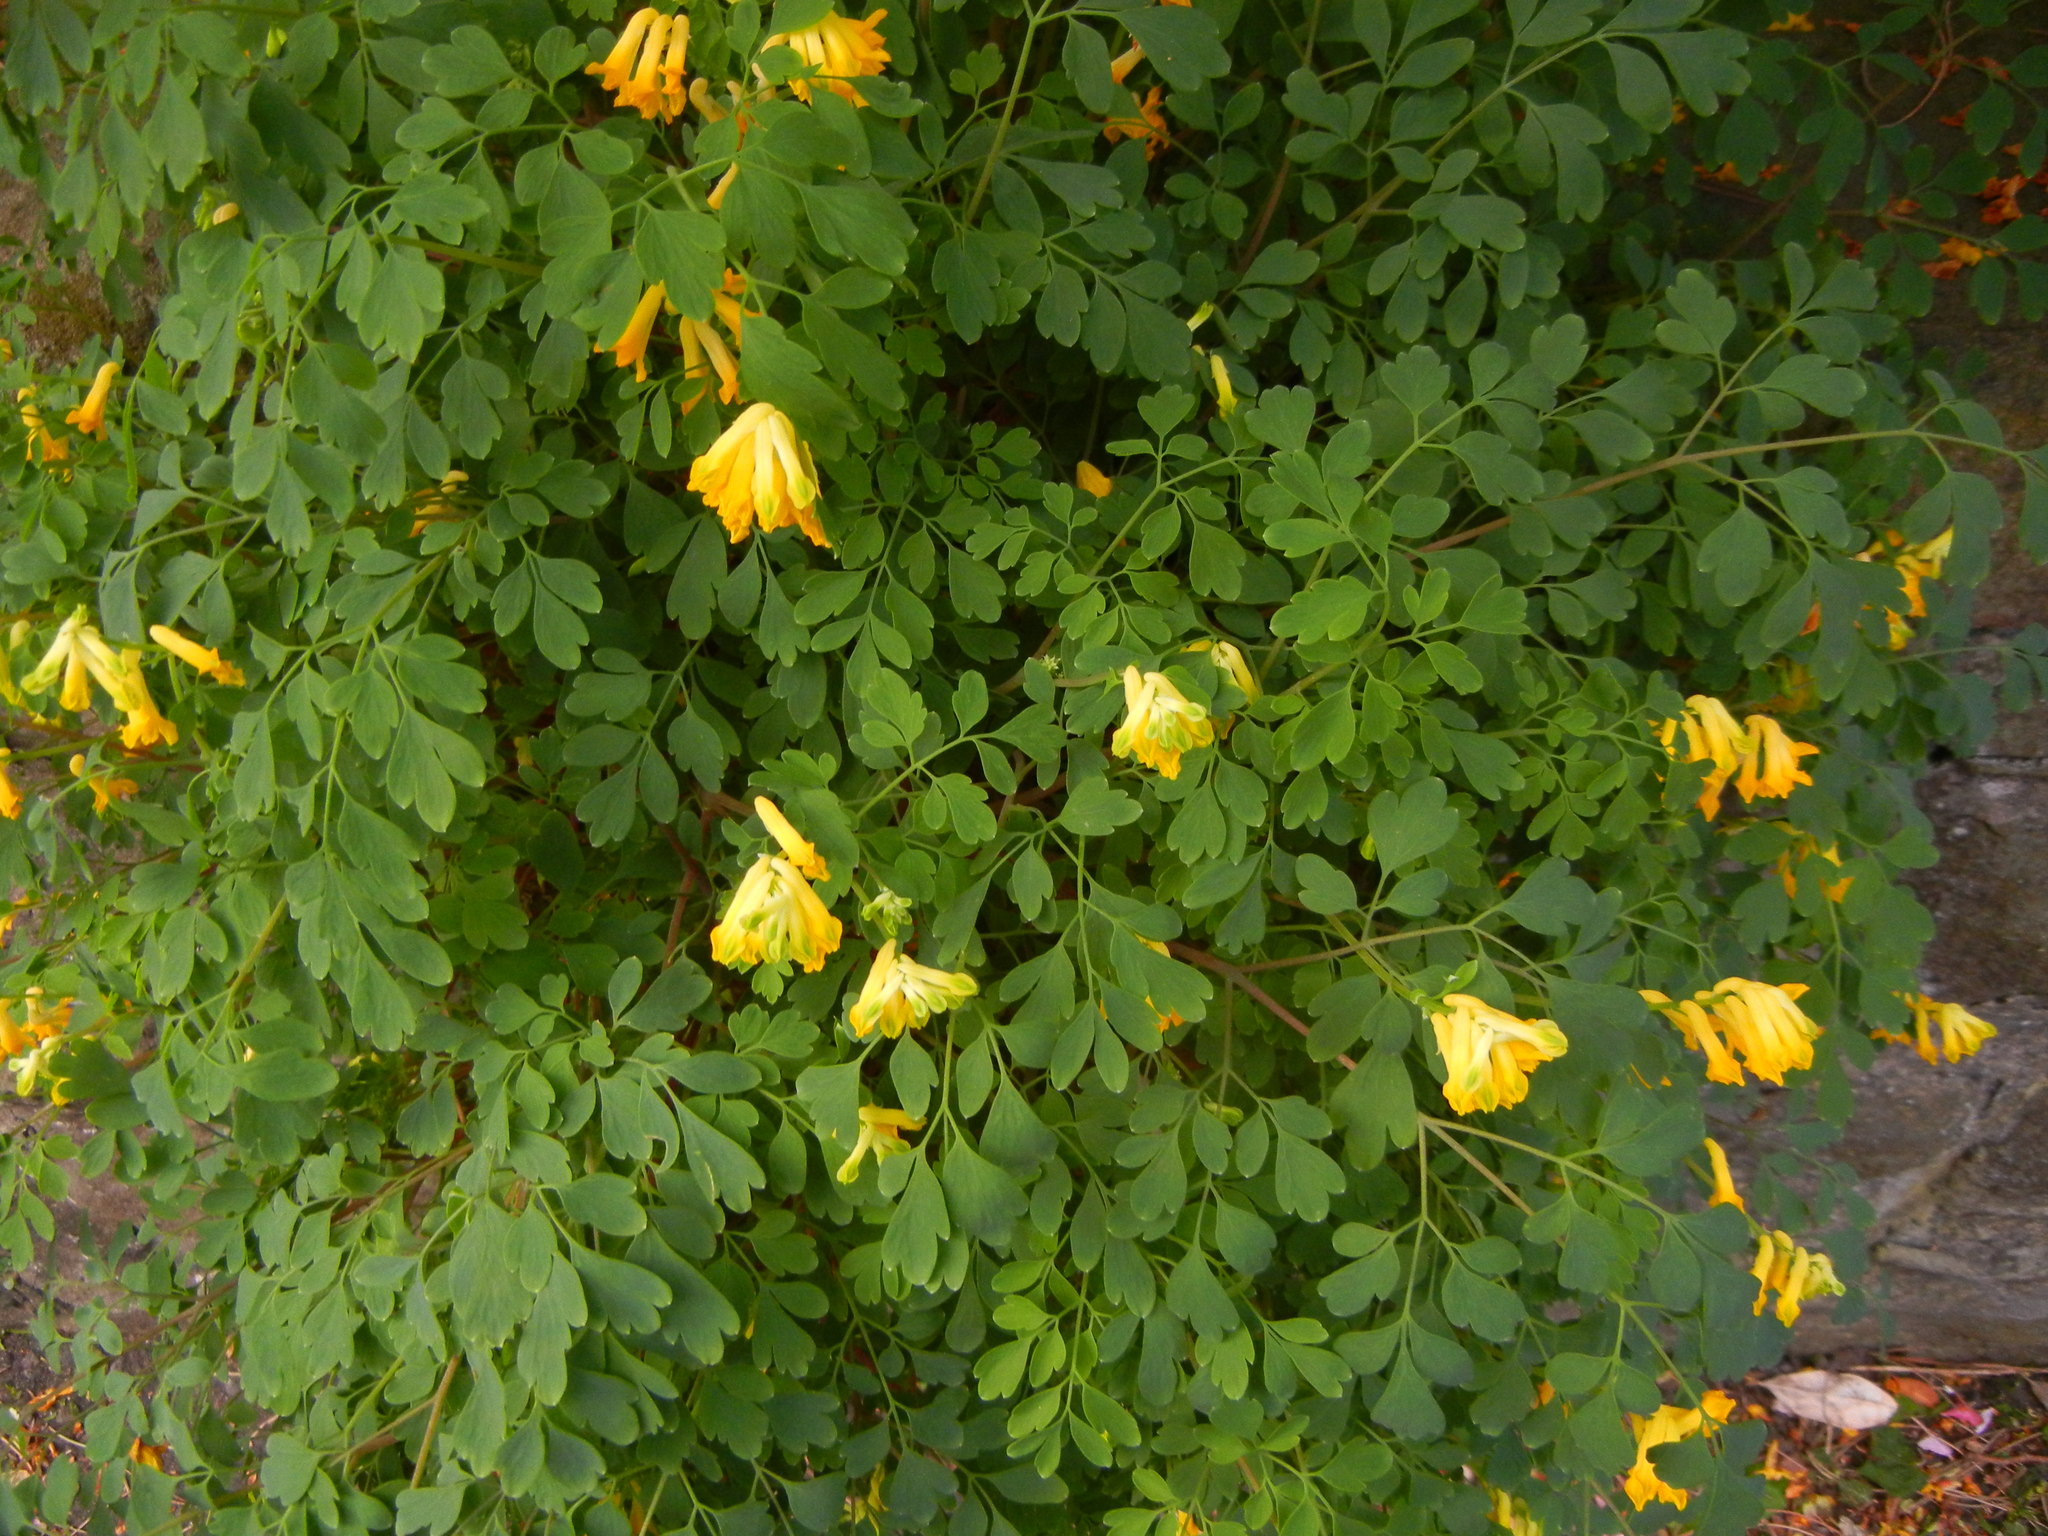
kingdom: Plantae
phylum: Tracheophyta
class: Magnoliopsida
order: Ranunculales
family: Papaveraceae
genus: Pseudofumaria
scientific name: Pseudofumaria lutea
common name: Yellow corydalis
